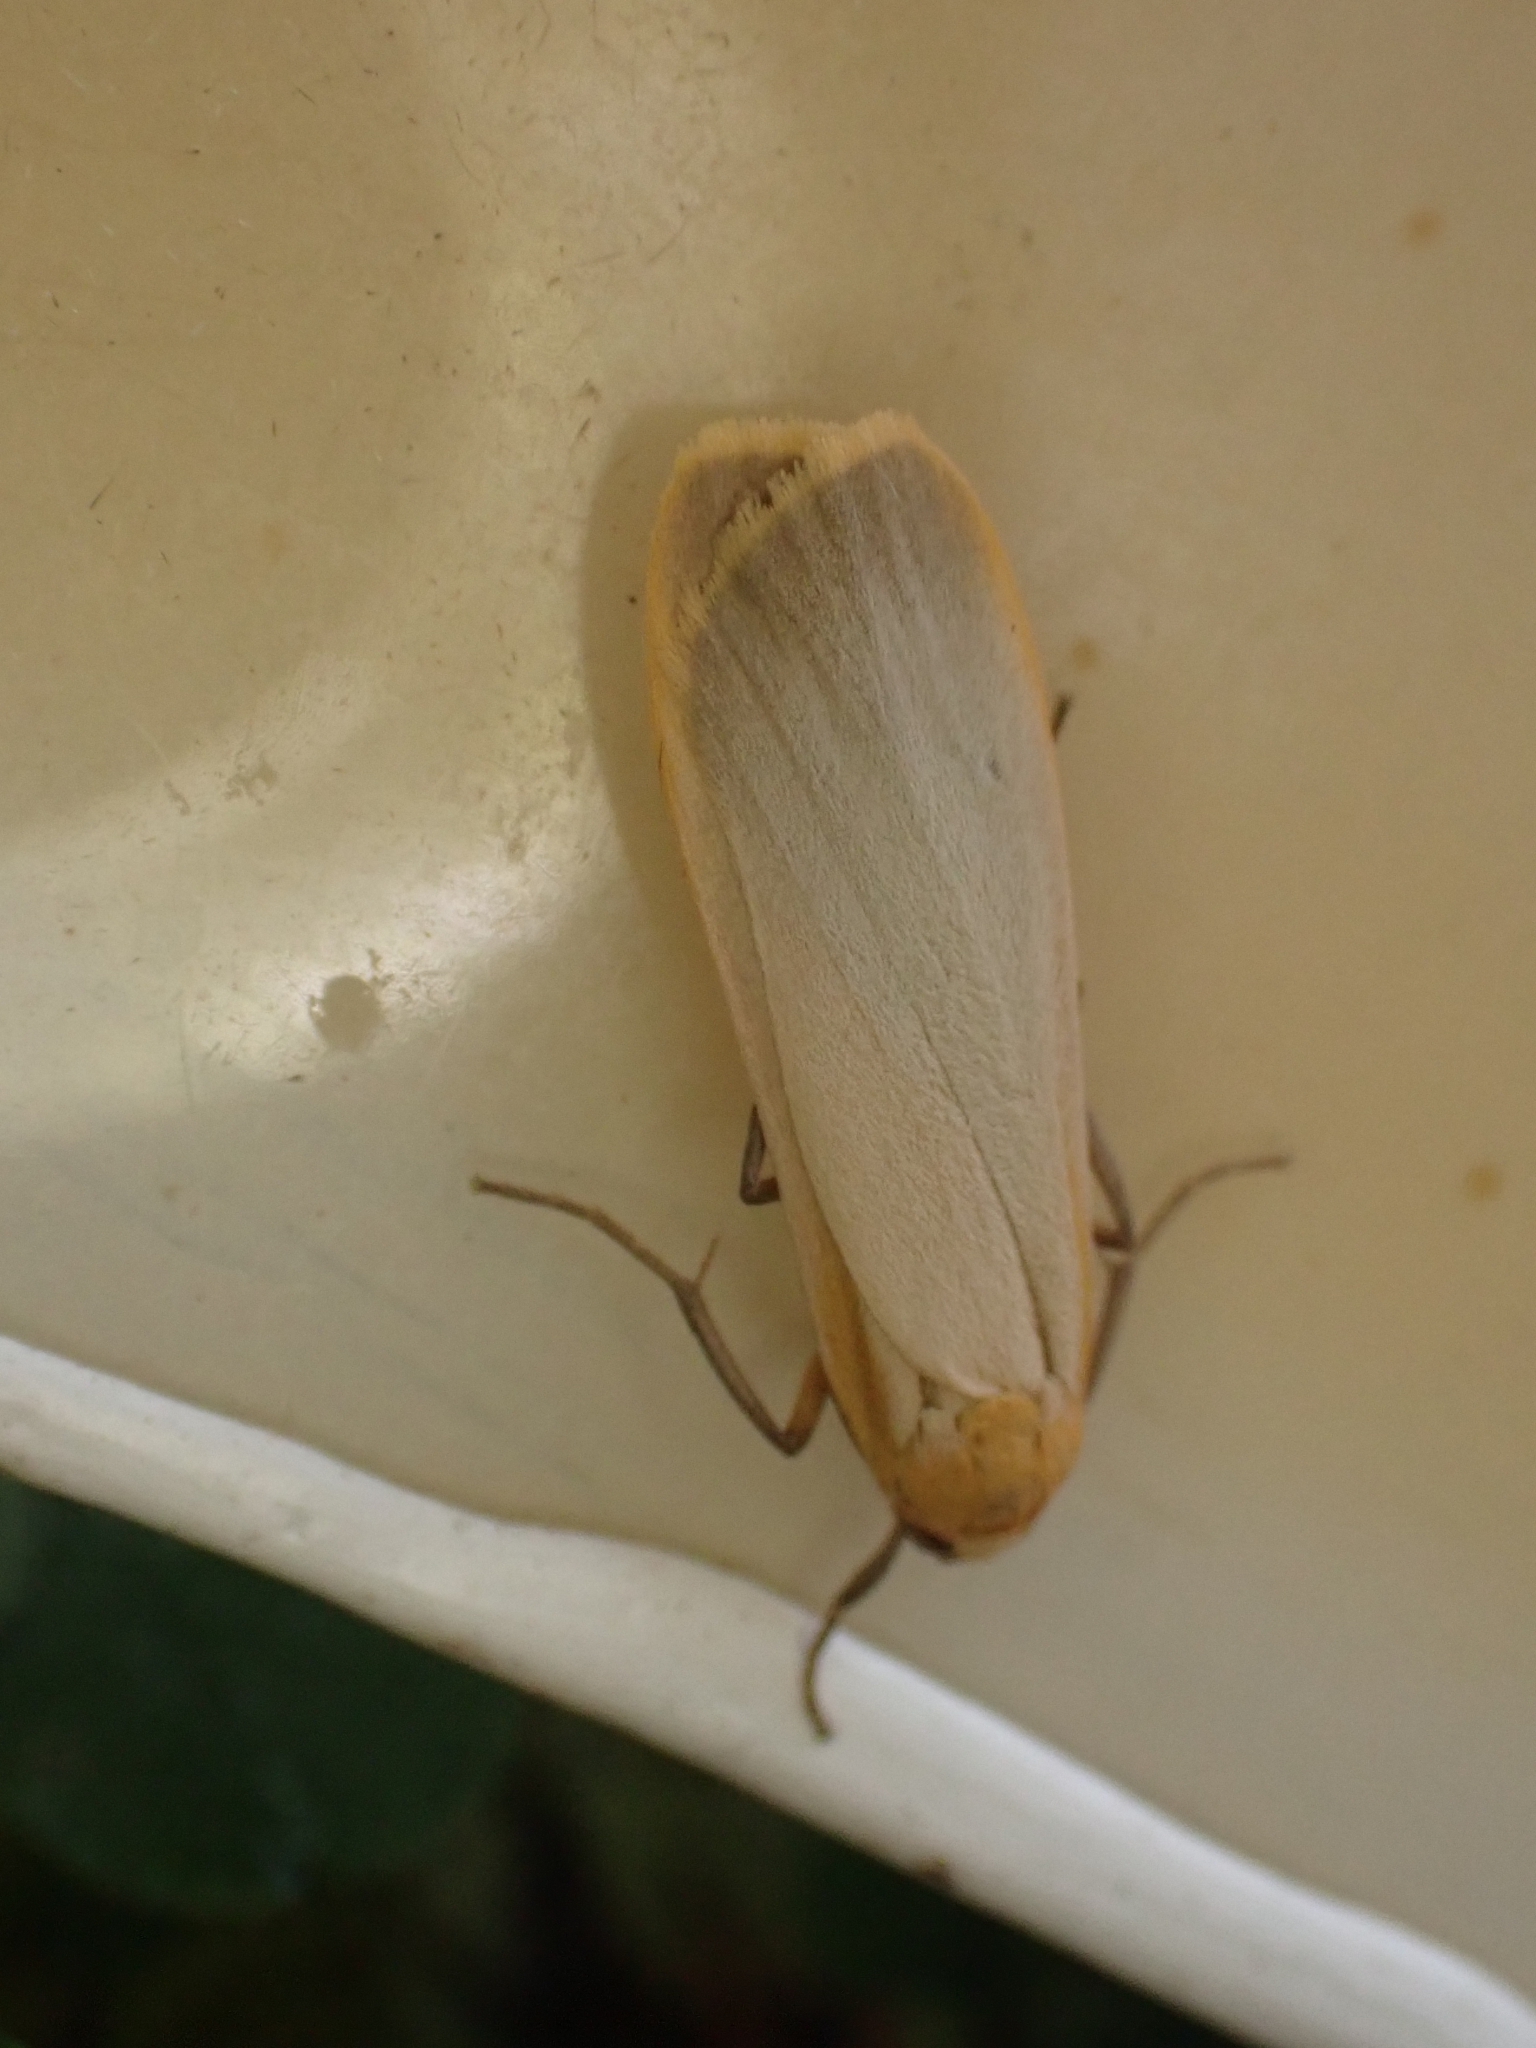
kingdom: Animalia
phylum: Arthropoda
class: Insecta
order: Lepidoptera
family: Erebidae
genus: Katha
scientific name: Katha depressa
